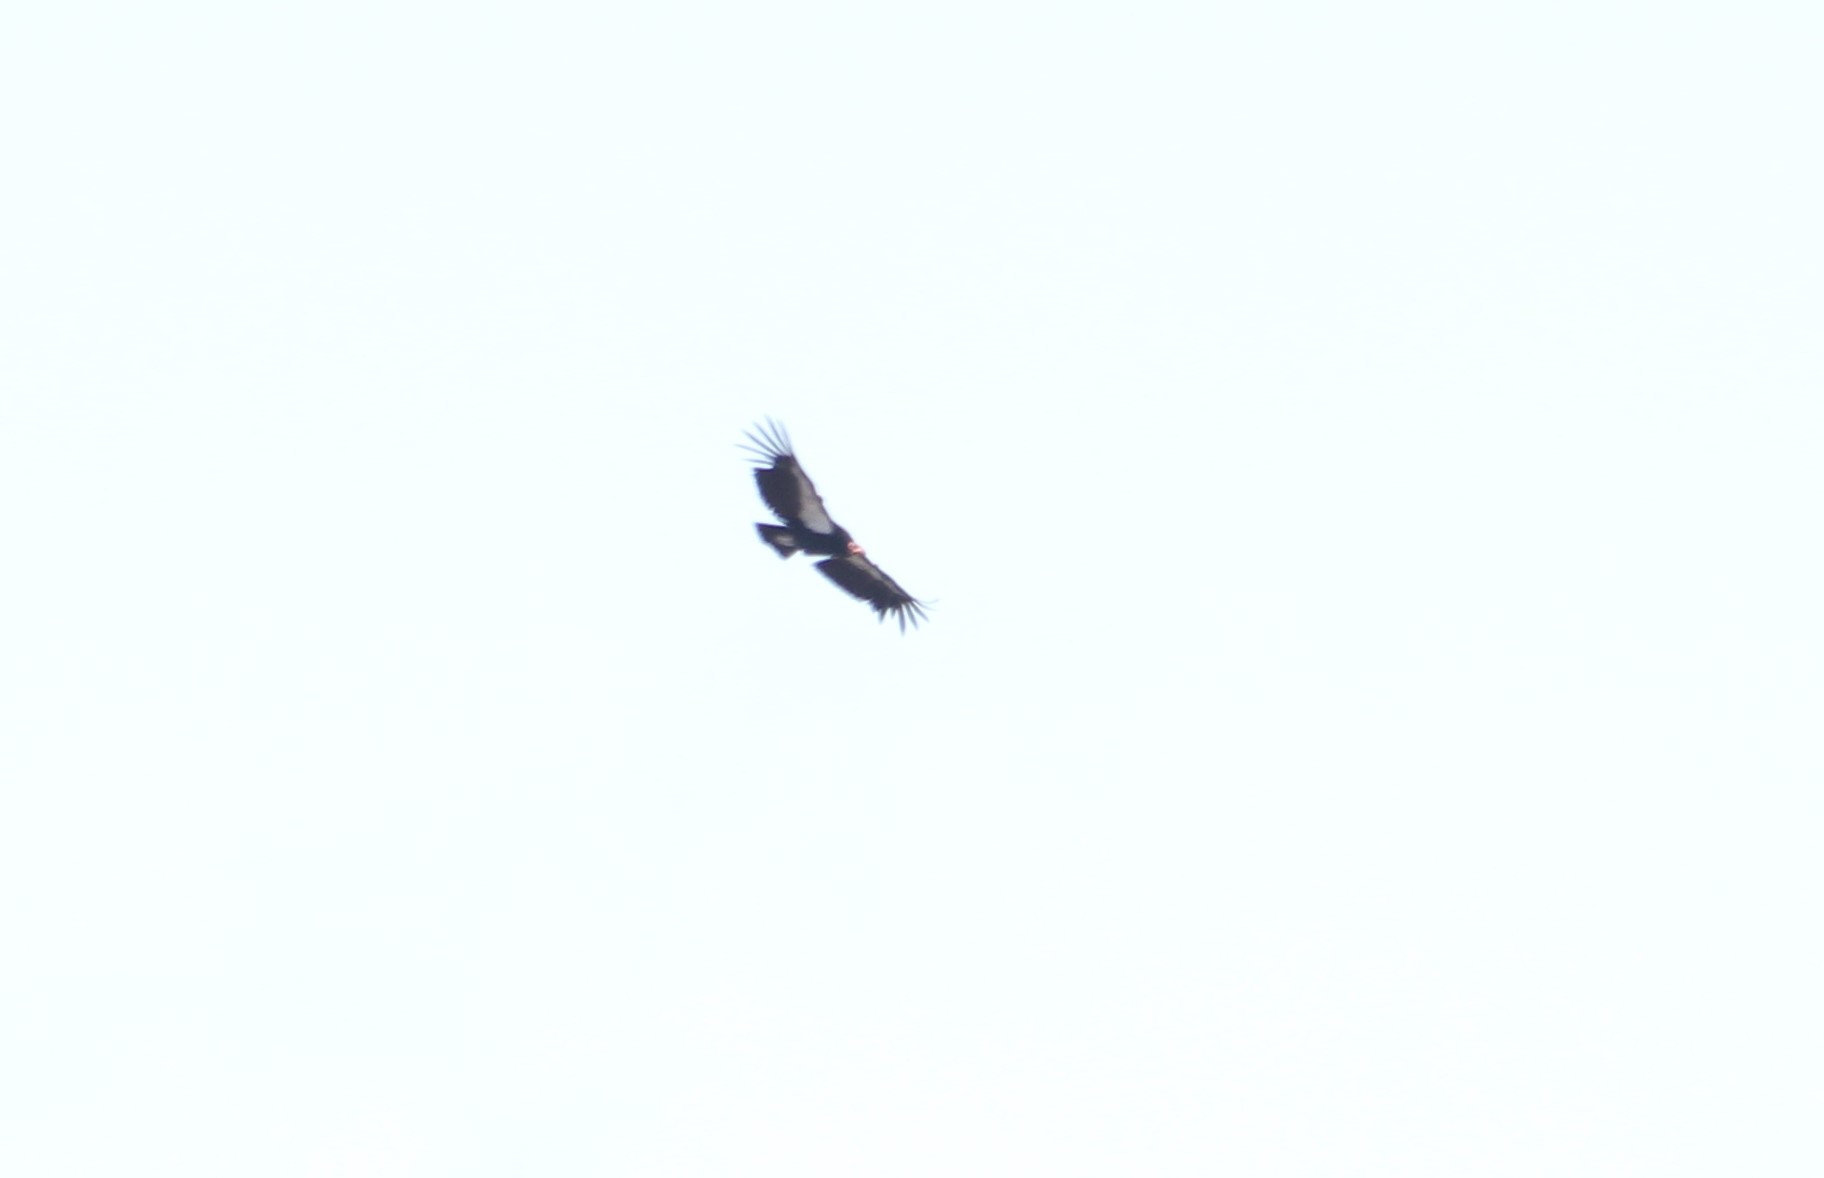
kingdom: Animalia
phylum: Chordata
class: Aves
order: Accipitriformes
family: Cathartidae
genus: Gymnogyps
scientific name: Gymnogyps californianus
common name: California condor
